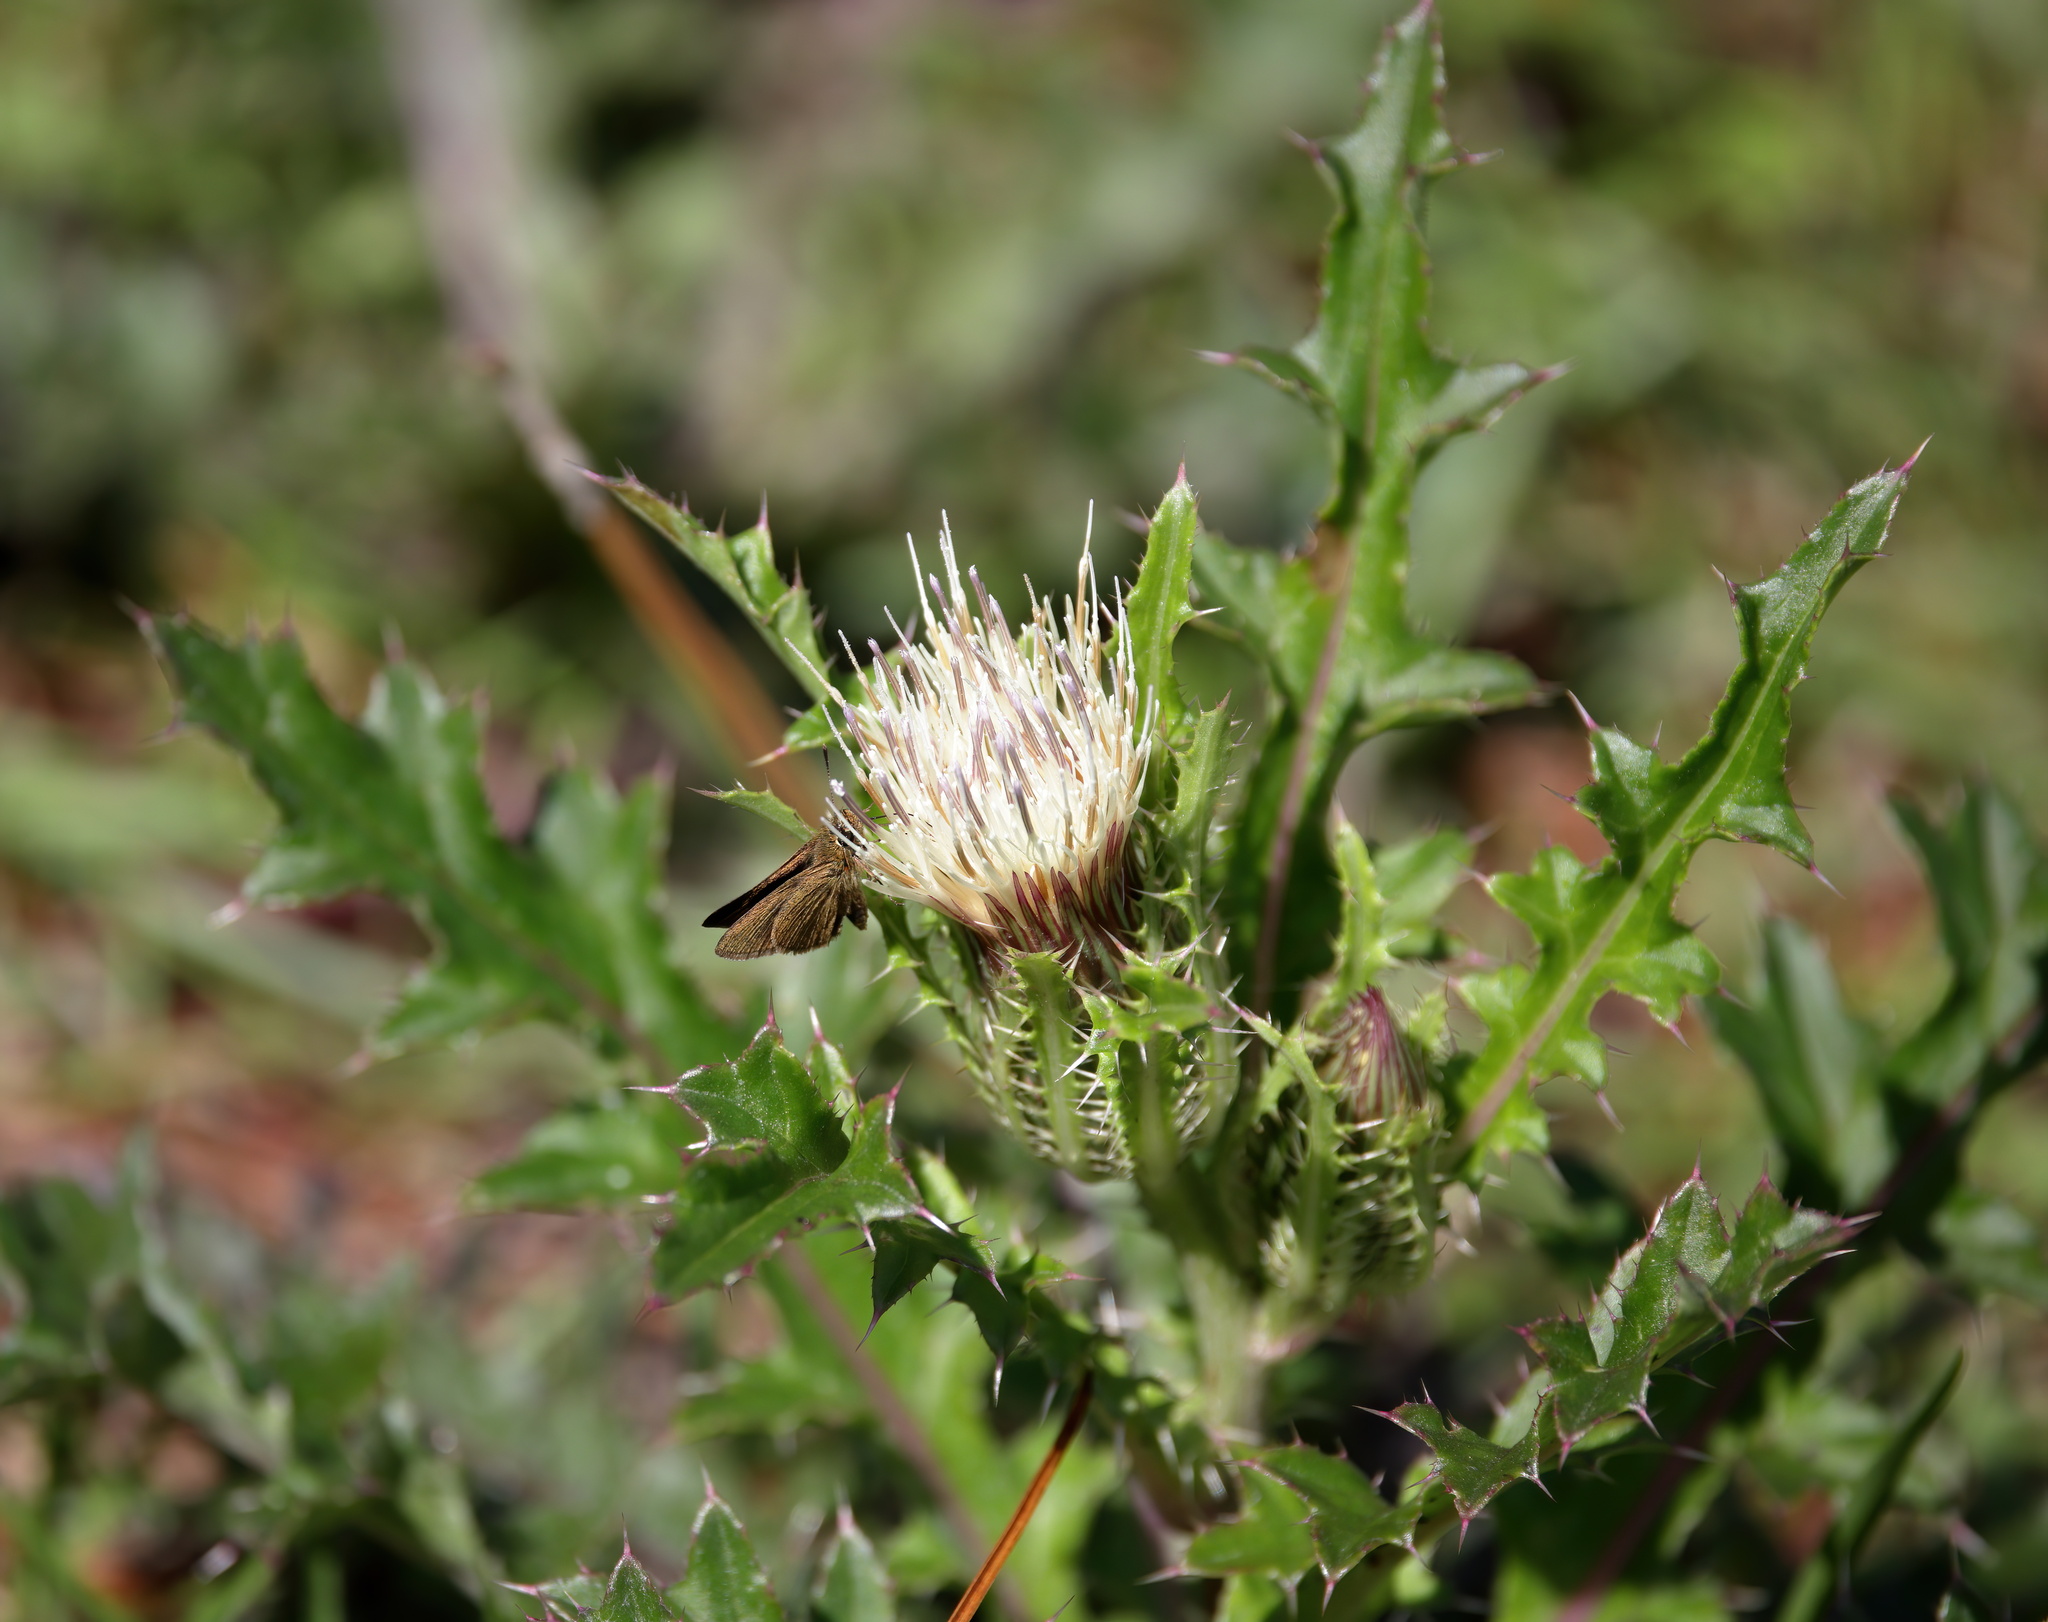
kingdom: Plantae
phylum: Tracheophyta
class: Magnoliopsida
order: Asterales
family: Asteraceae
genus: Cirsium
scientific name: Cirsium horridulum
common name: Bristly thistle
